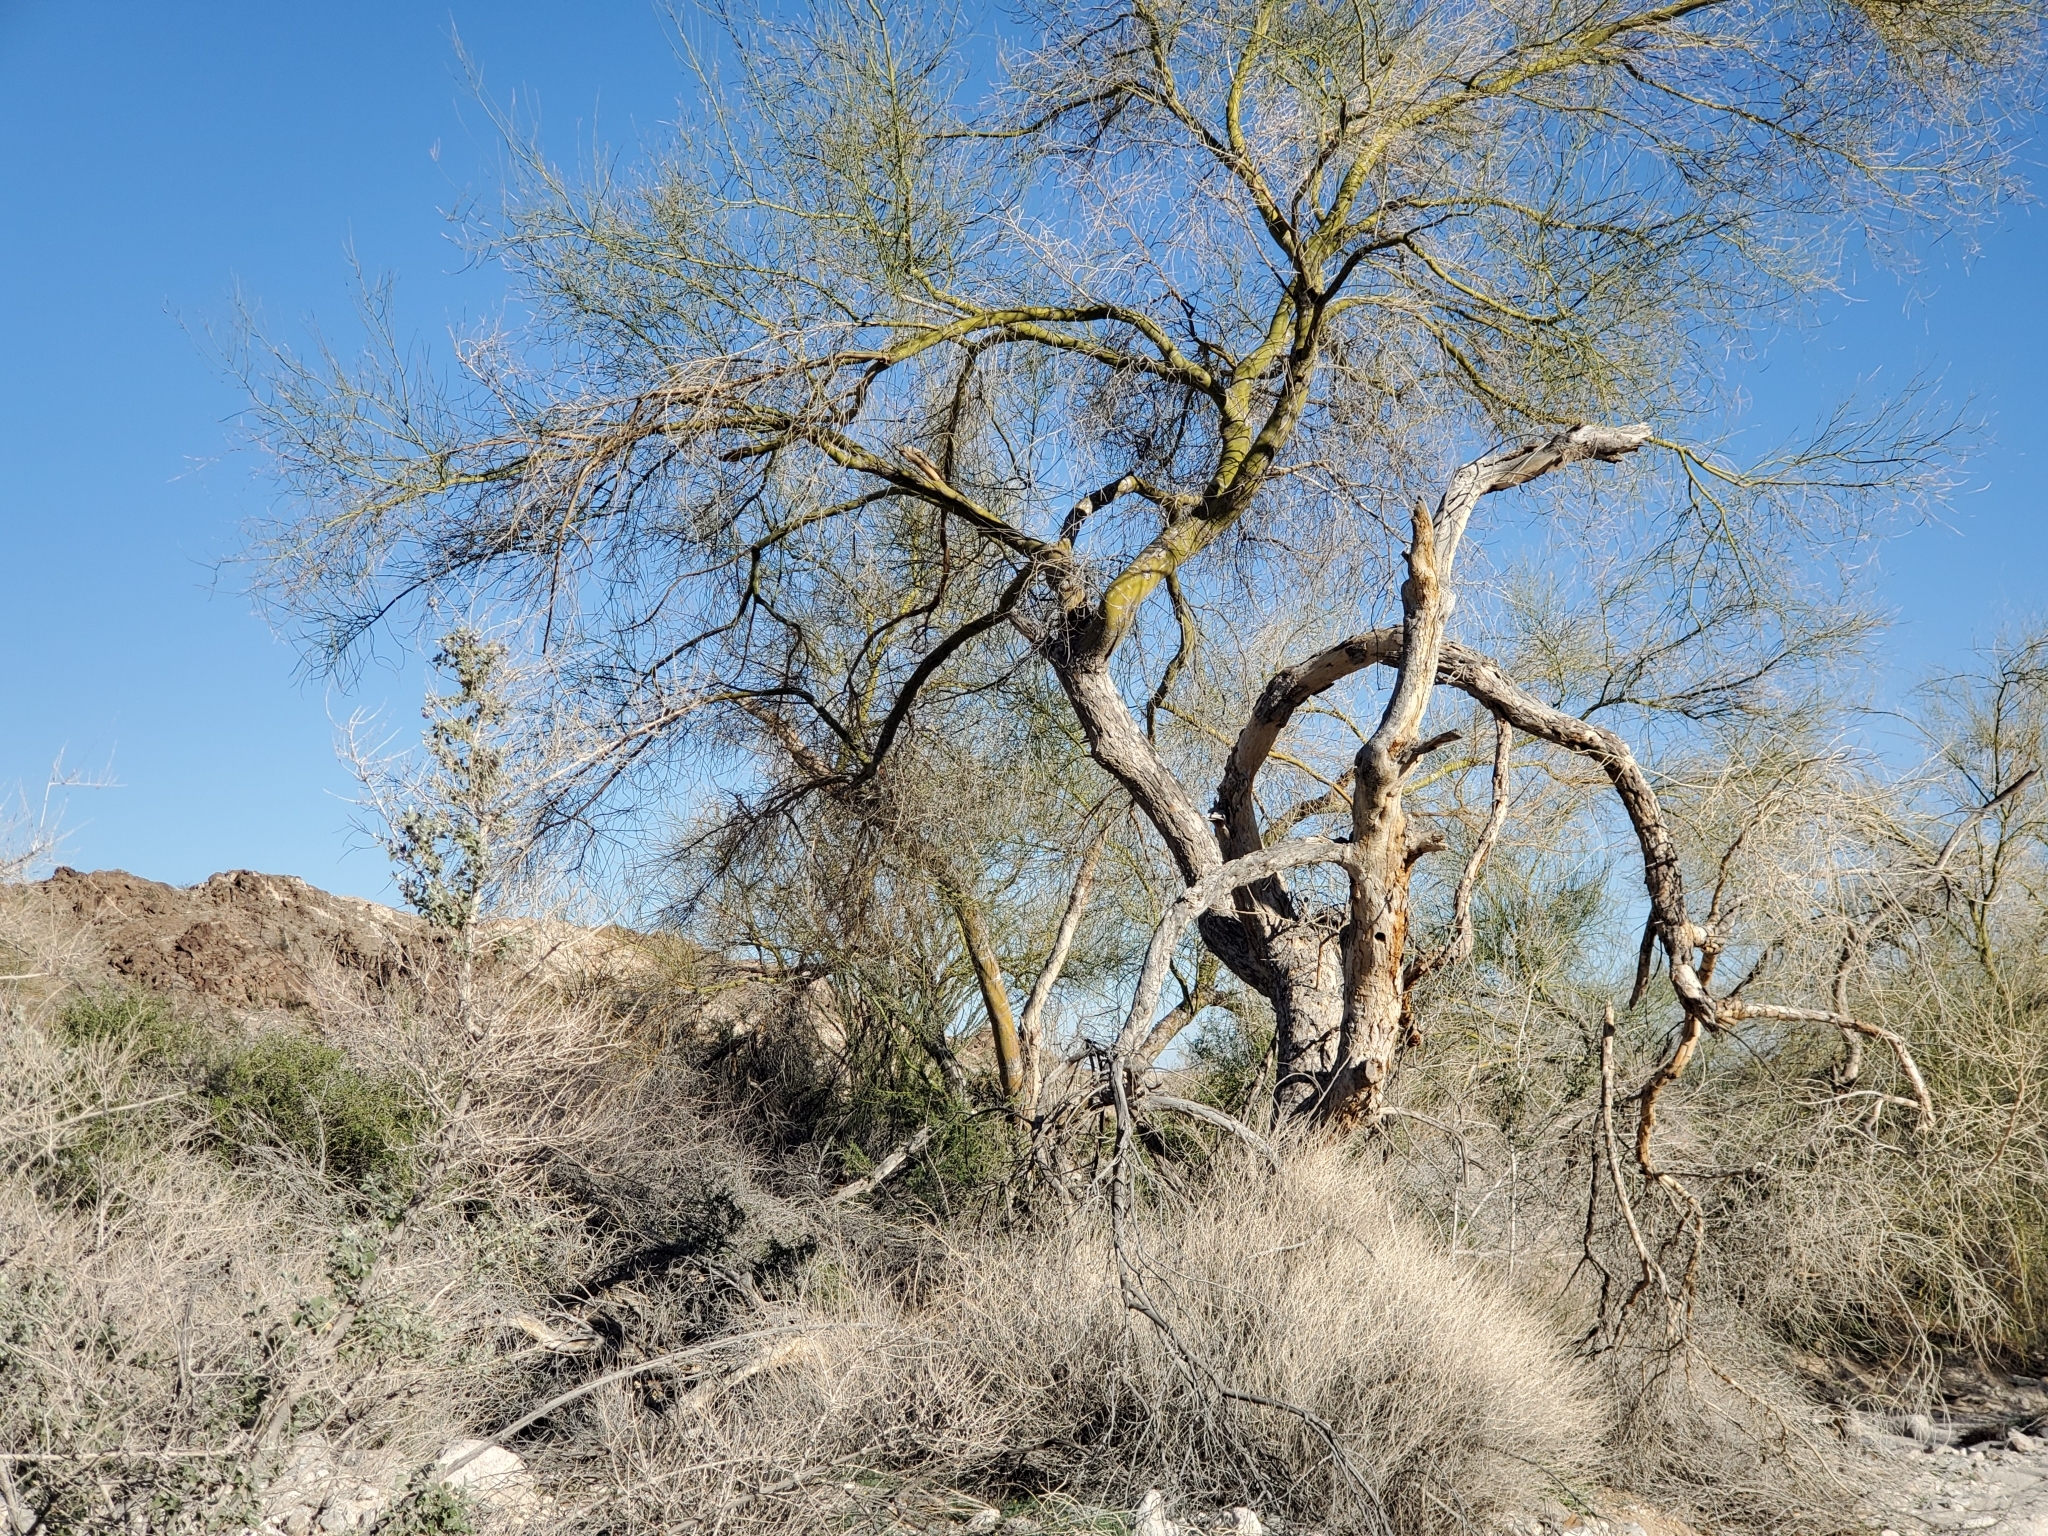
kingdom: Plantae
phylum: Tracheophyta
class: Magnoliopsida
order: Fabales
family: Fabaceae
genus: Parkinsonia
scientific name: Parkinsonia florida
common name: Blue paloverde
